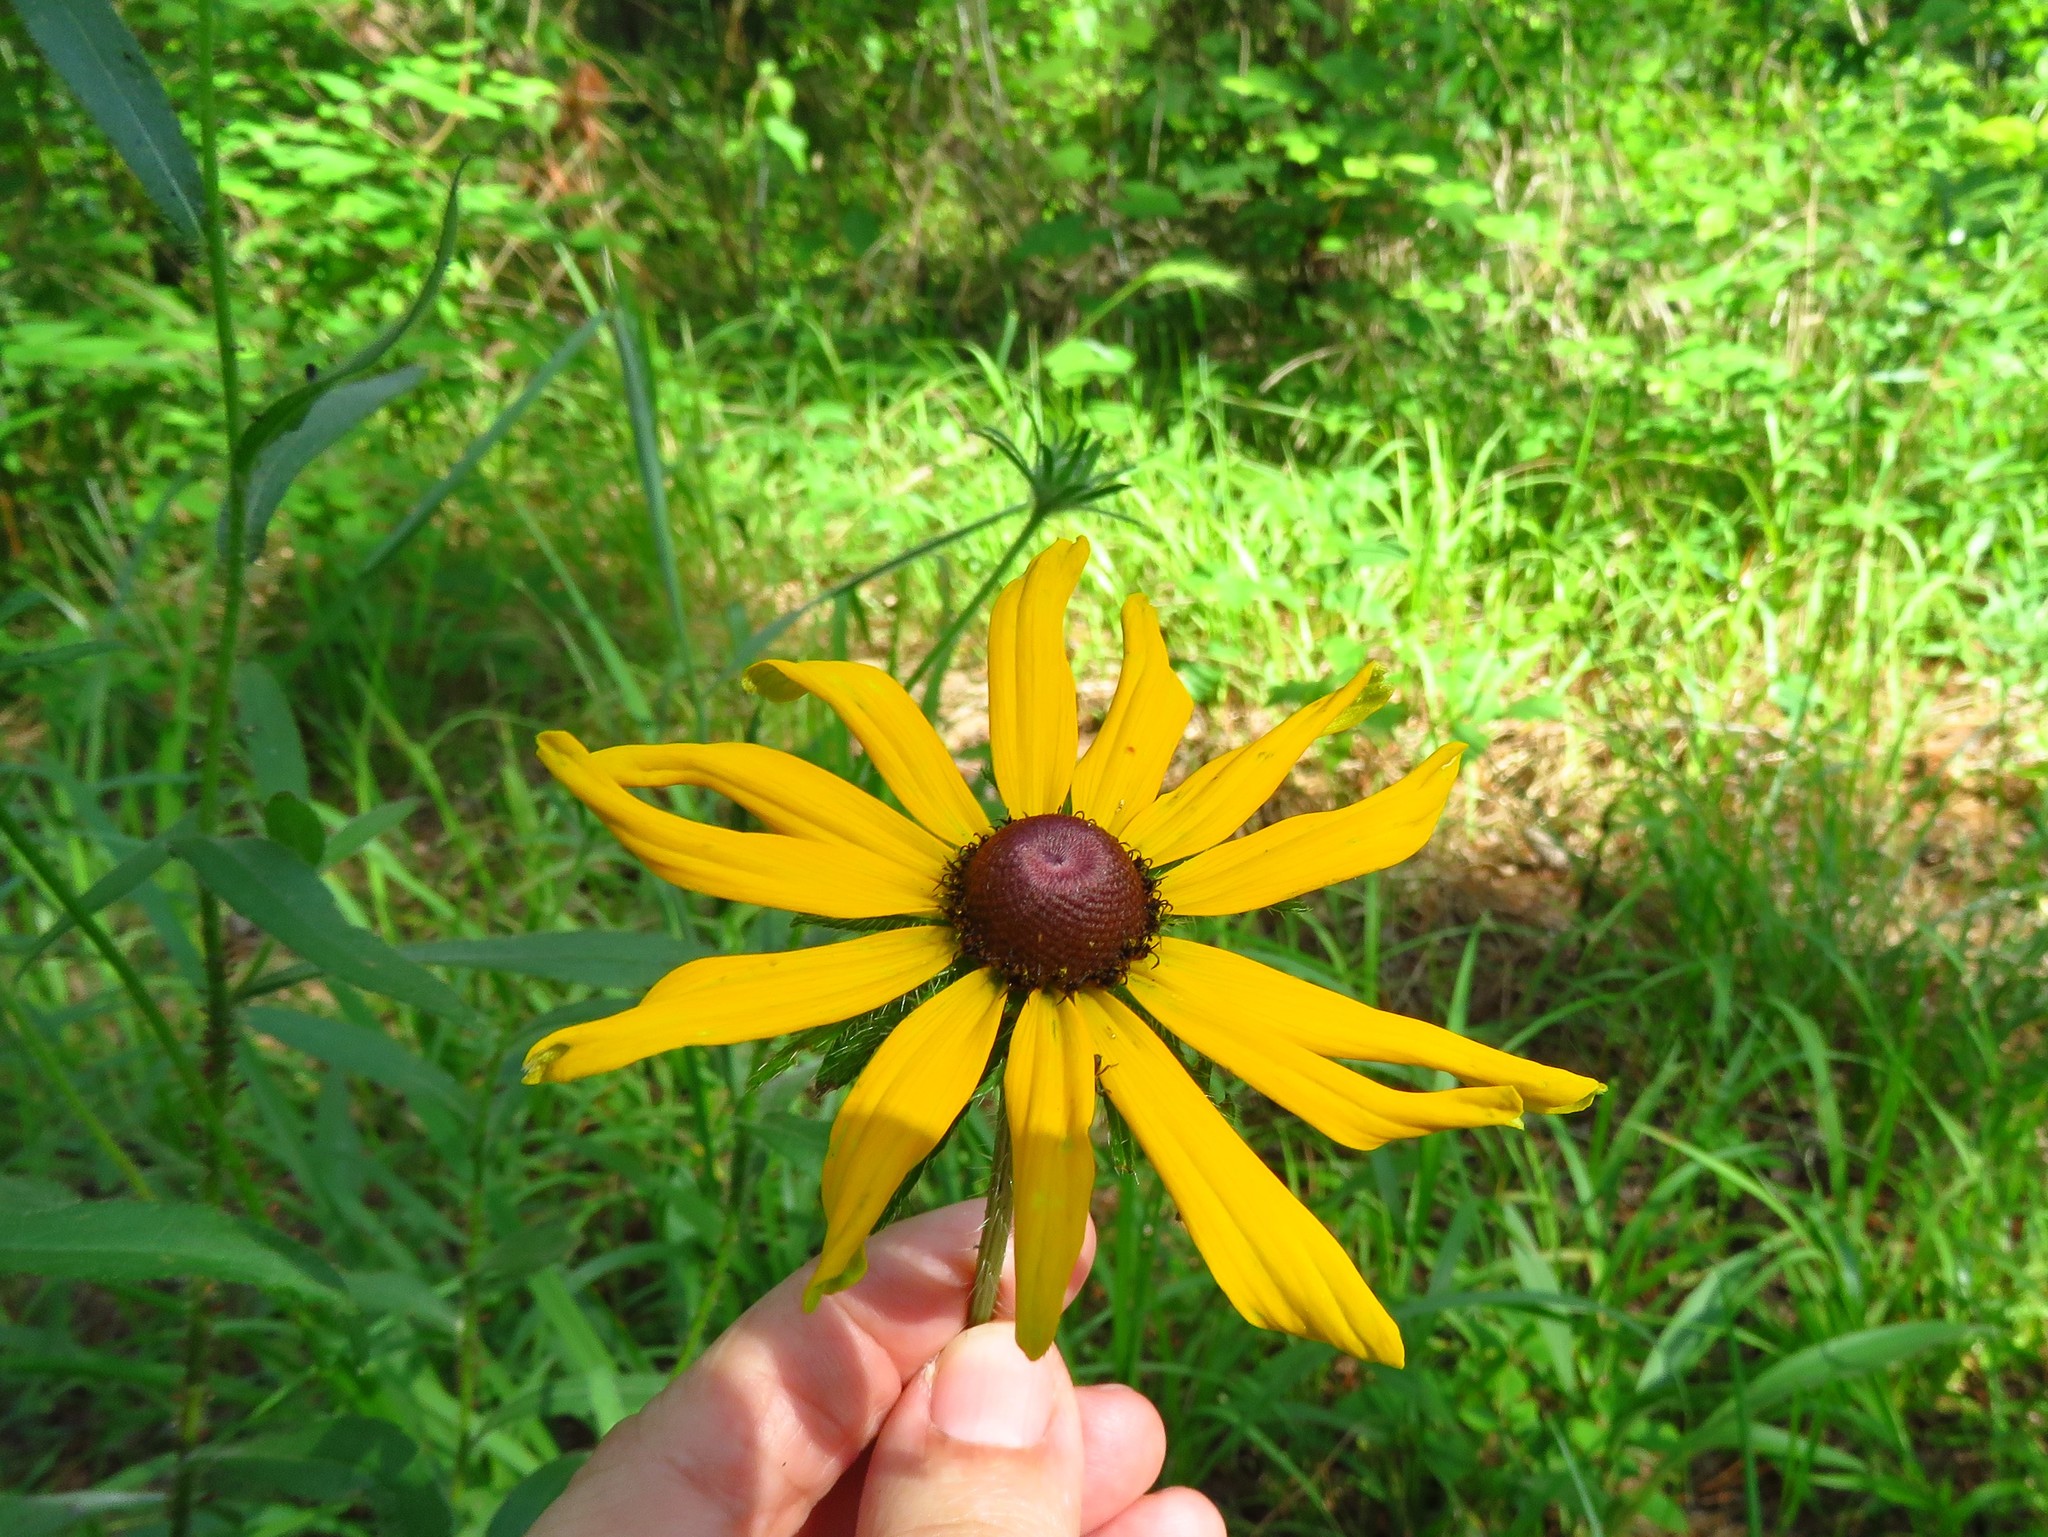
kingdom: Plantae
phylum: Tracheophyta
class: Magnoliopsida
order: Asterales
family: Asteraceae
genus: Rudbeckia
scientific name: Rudbeckia hirta
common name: Black-eyed-susan
